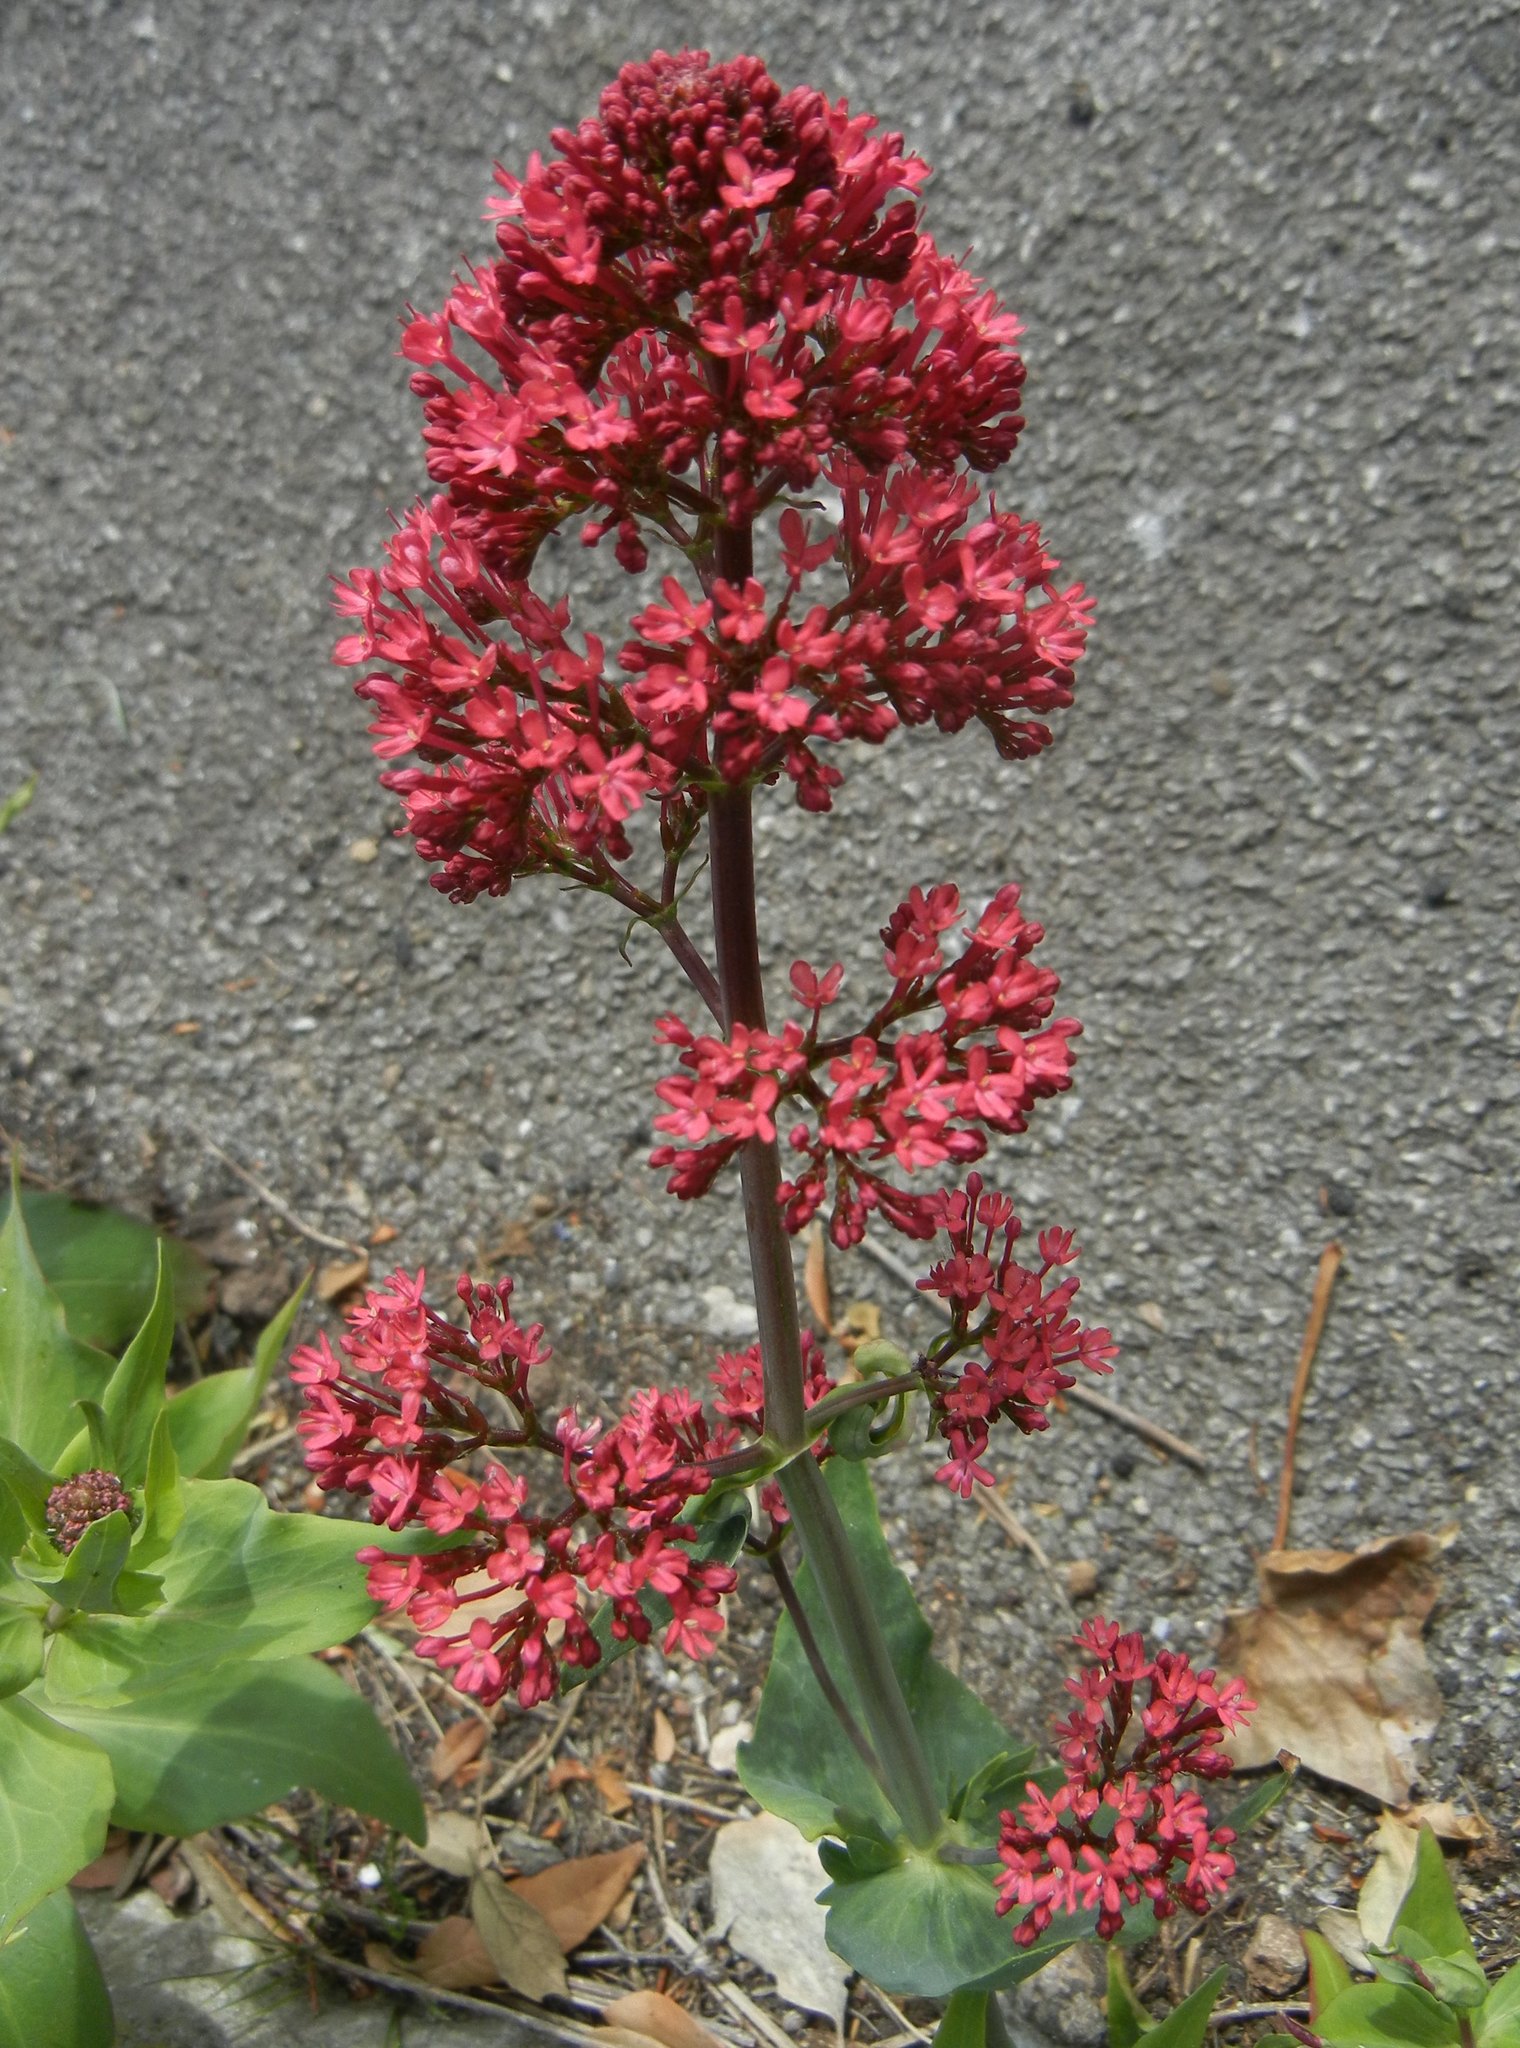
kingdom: Plantae
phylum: Tracheophyta
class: Magnoliopsida
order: Dipsacales
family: Caprifoliaceae
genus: Centranthus
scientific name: Centranthus ruber
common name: Red valerian
